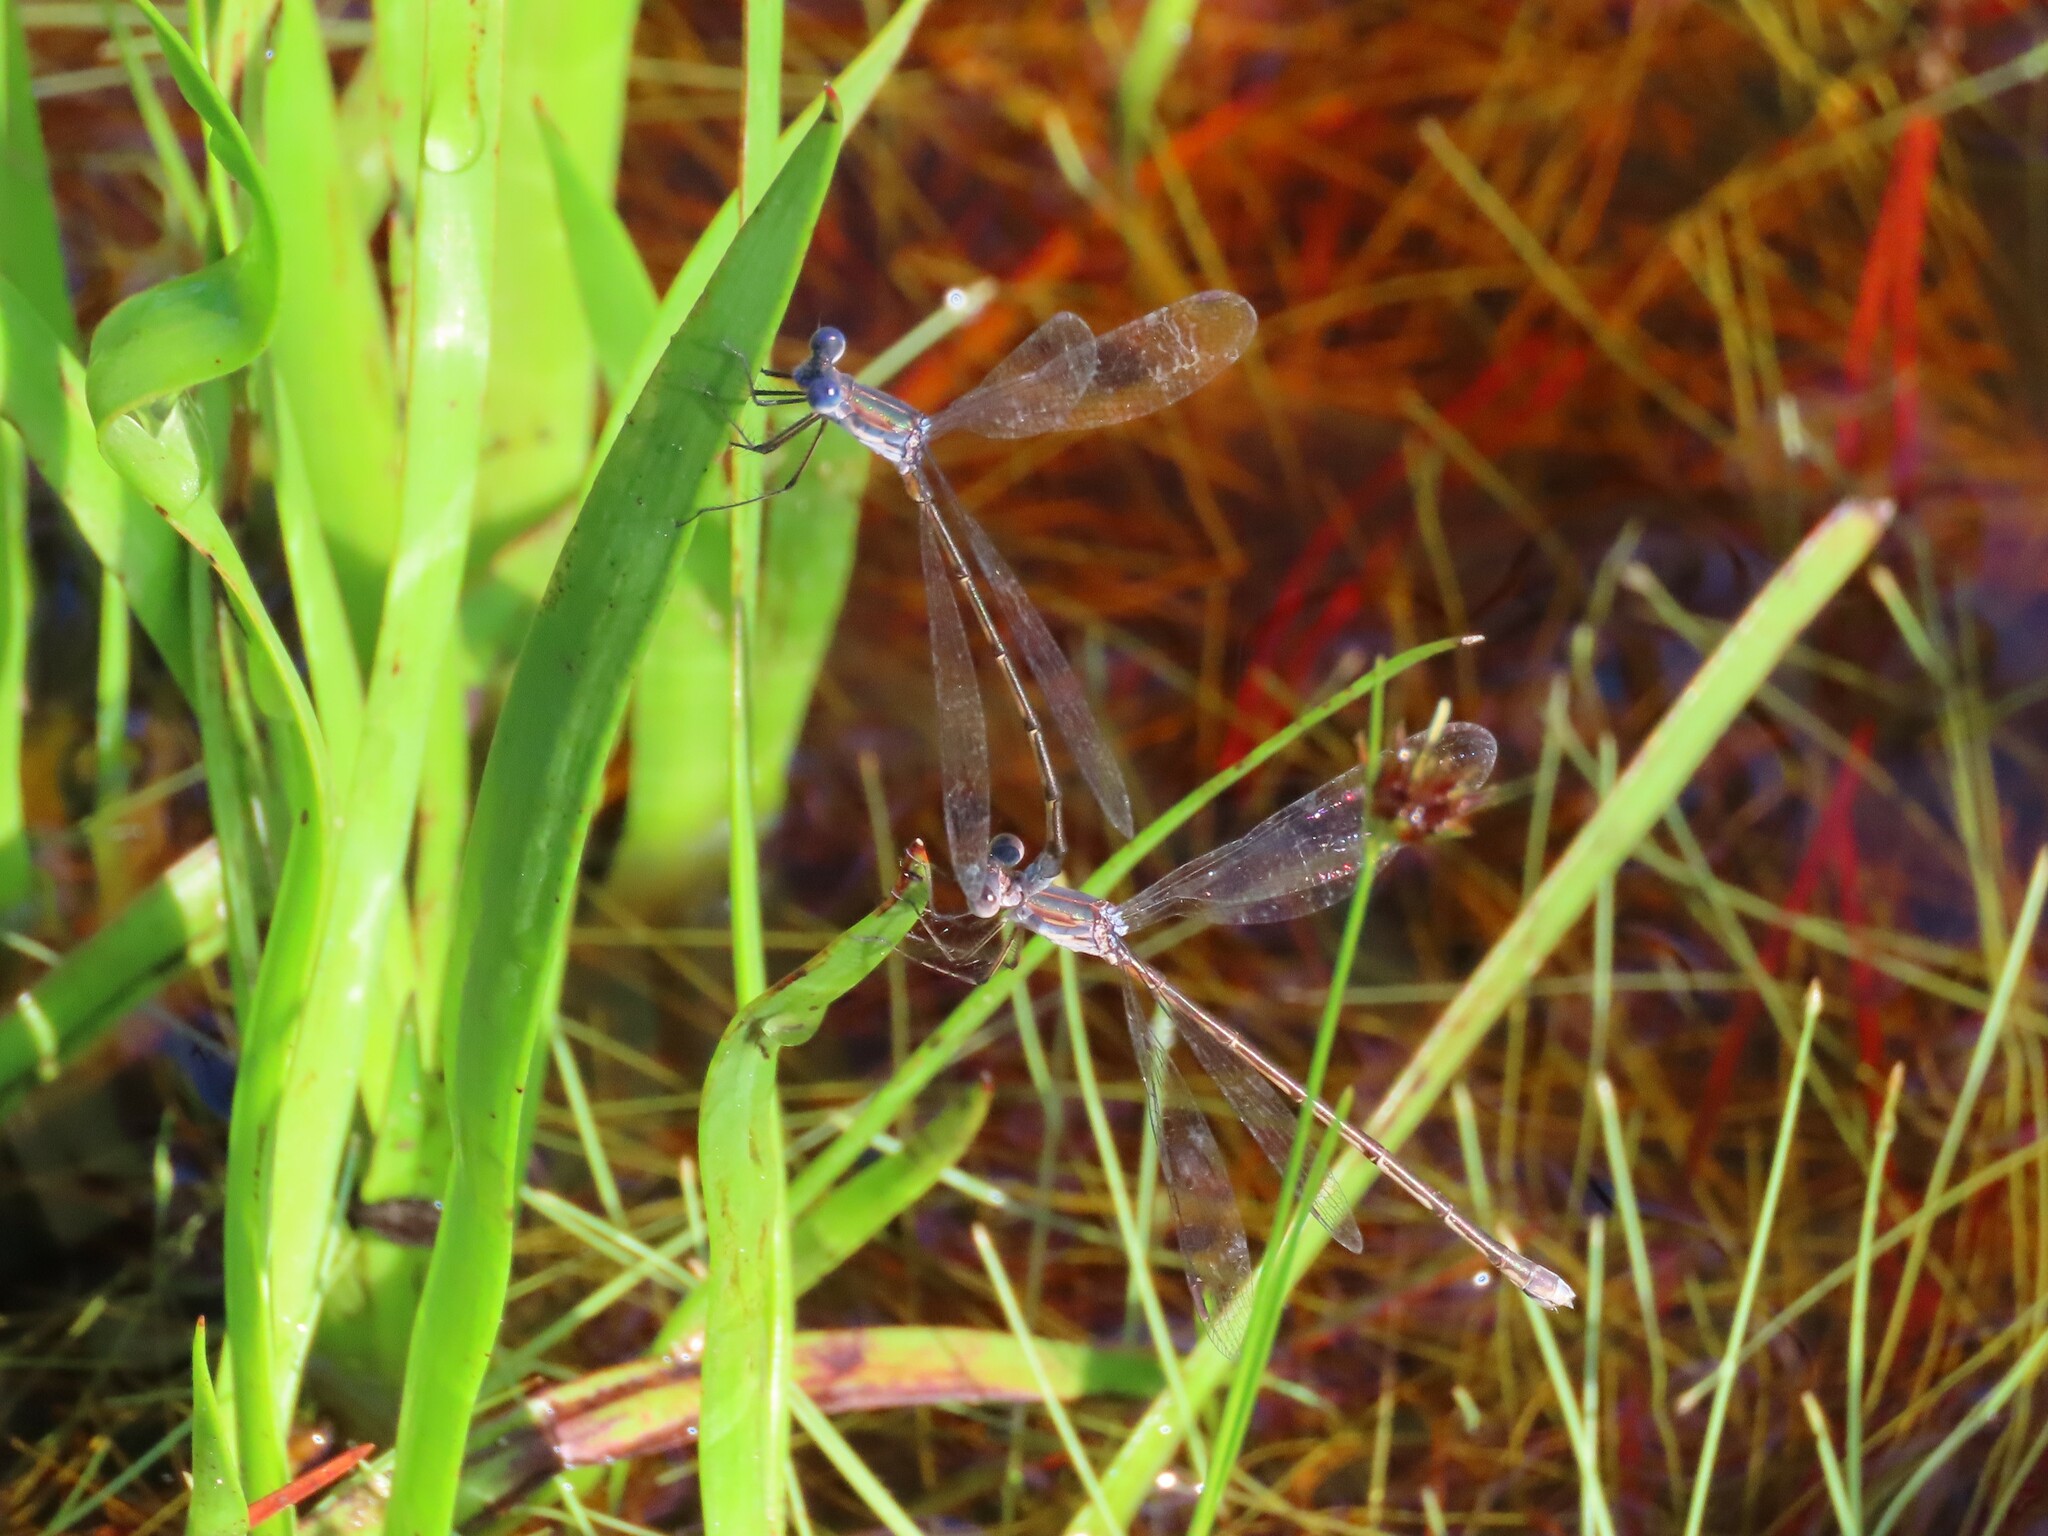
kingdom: Animalia
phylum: Arthropoda
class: Insecta
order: Odonata
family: Lestidae
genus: Lestes
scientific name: Lestes vidua
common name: Carolina spreadwing
